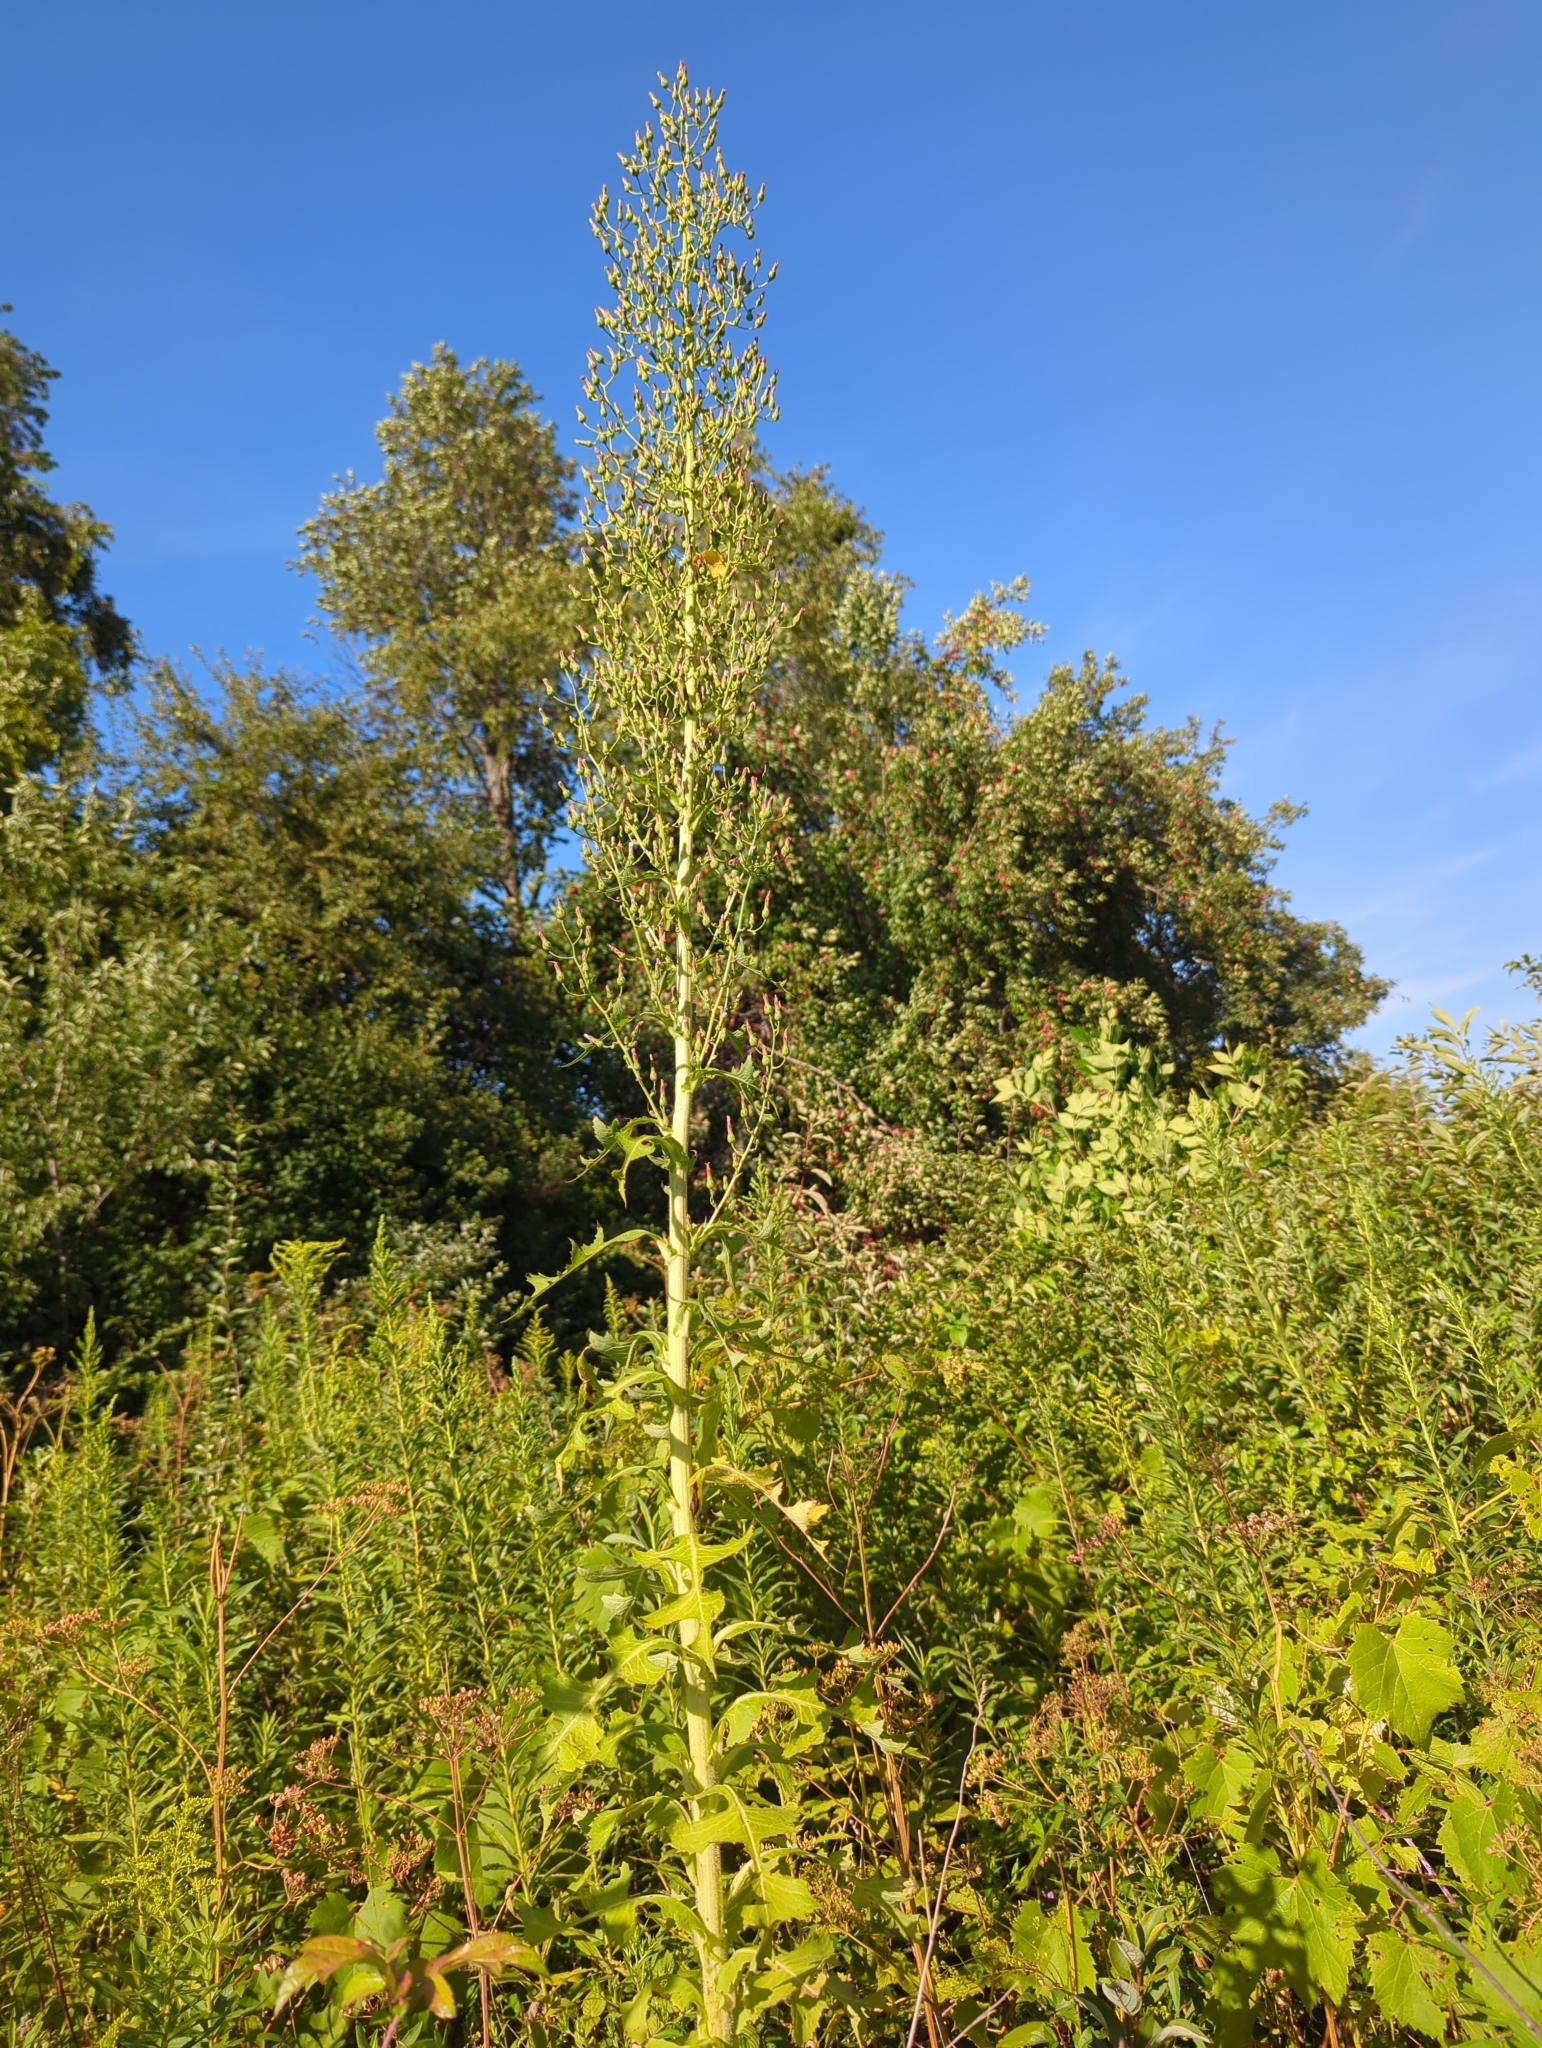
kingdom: Plantae
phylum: Tracheophyta
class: Magnoliopsida
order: Asterales
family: Asteraceae
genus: Lactuca
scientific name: Lactuca biennis
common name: Blue wood lettuce
